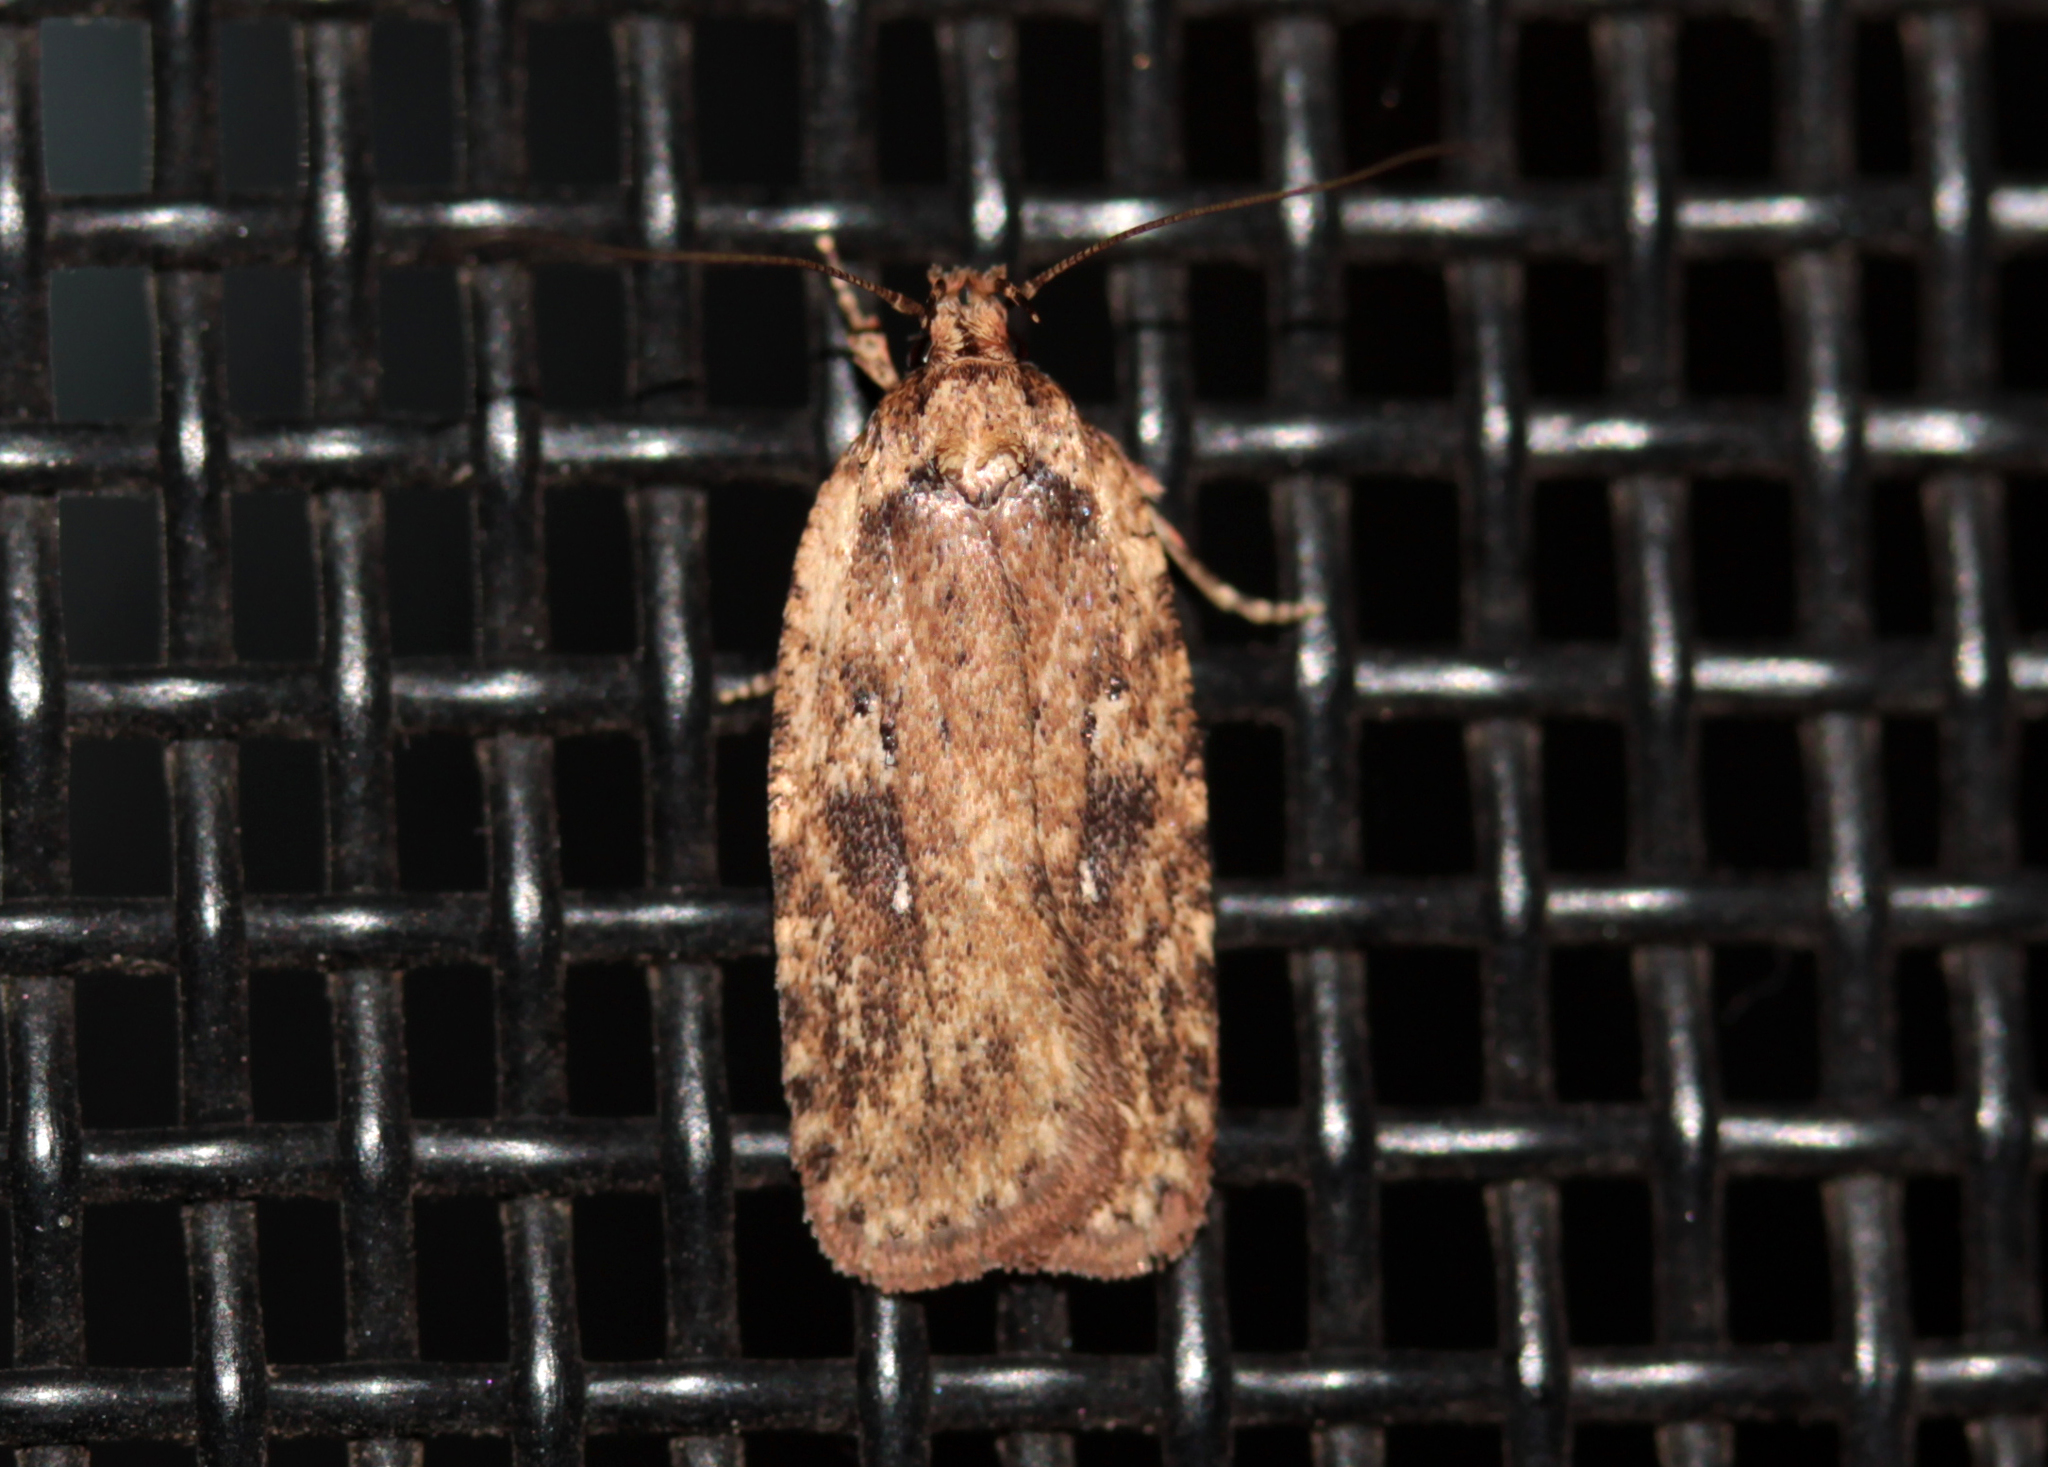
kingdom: Animalia
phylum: Arthropoda
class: Insecta
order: Lepidoptera
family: Depressariidae
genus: Agonopterix
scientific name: Agonopterix pulvipennella
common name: Goldenrod leafffolder
